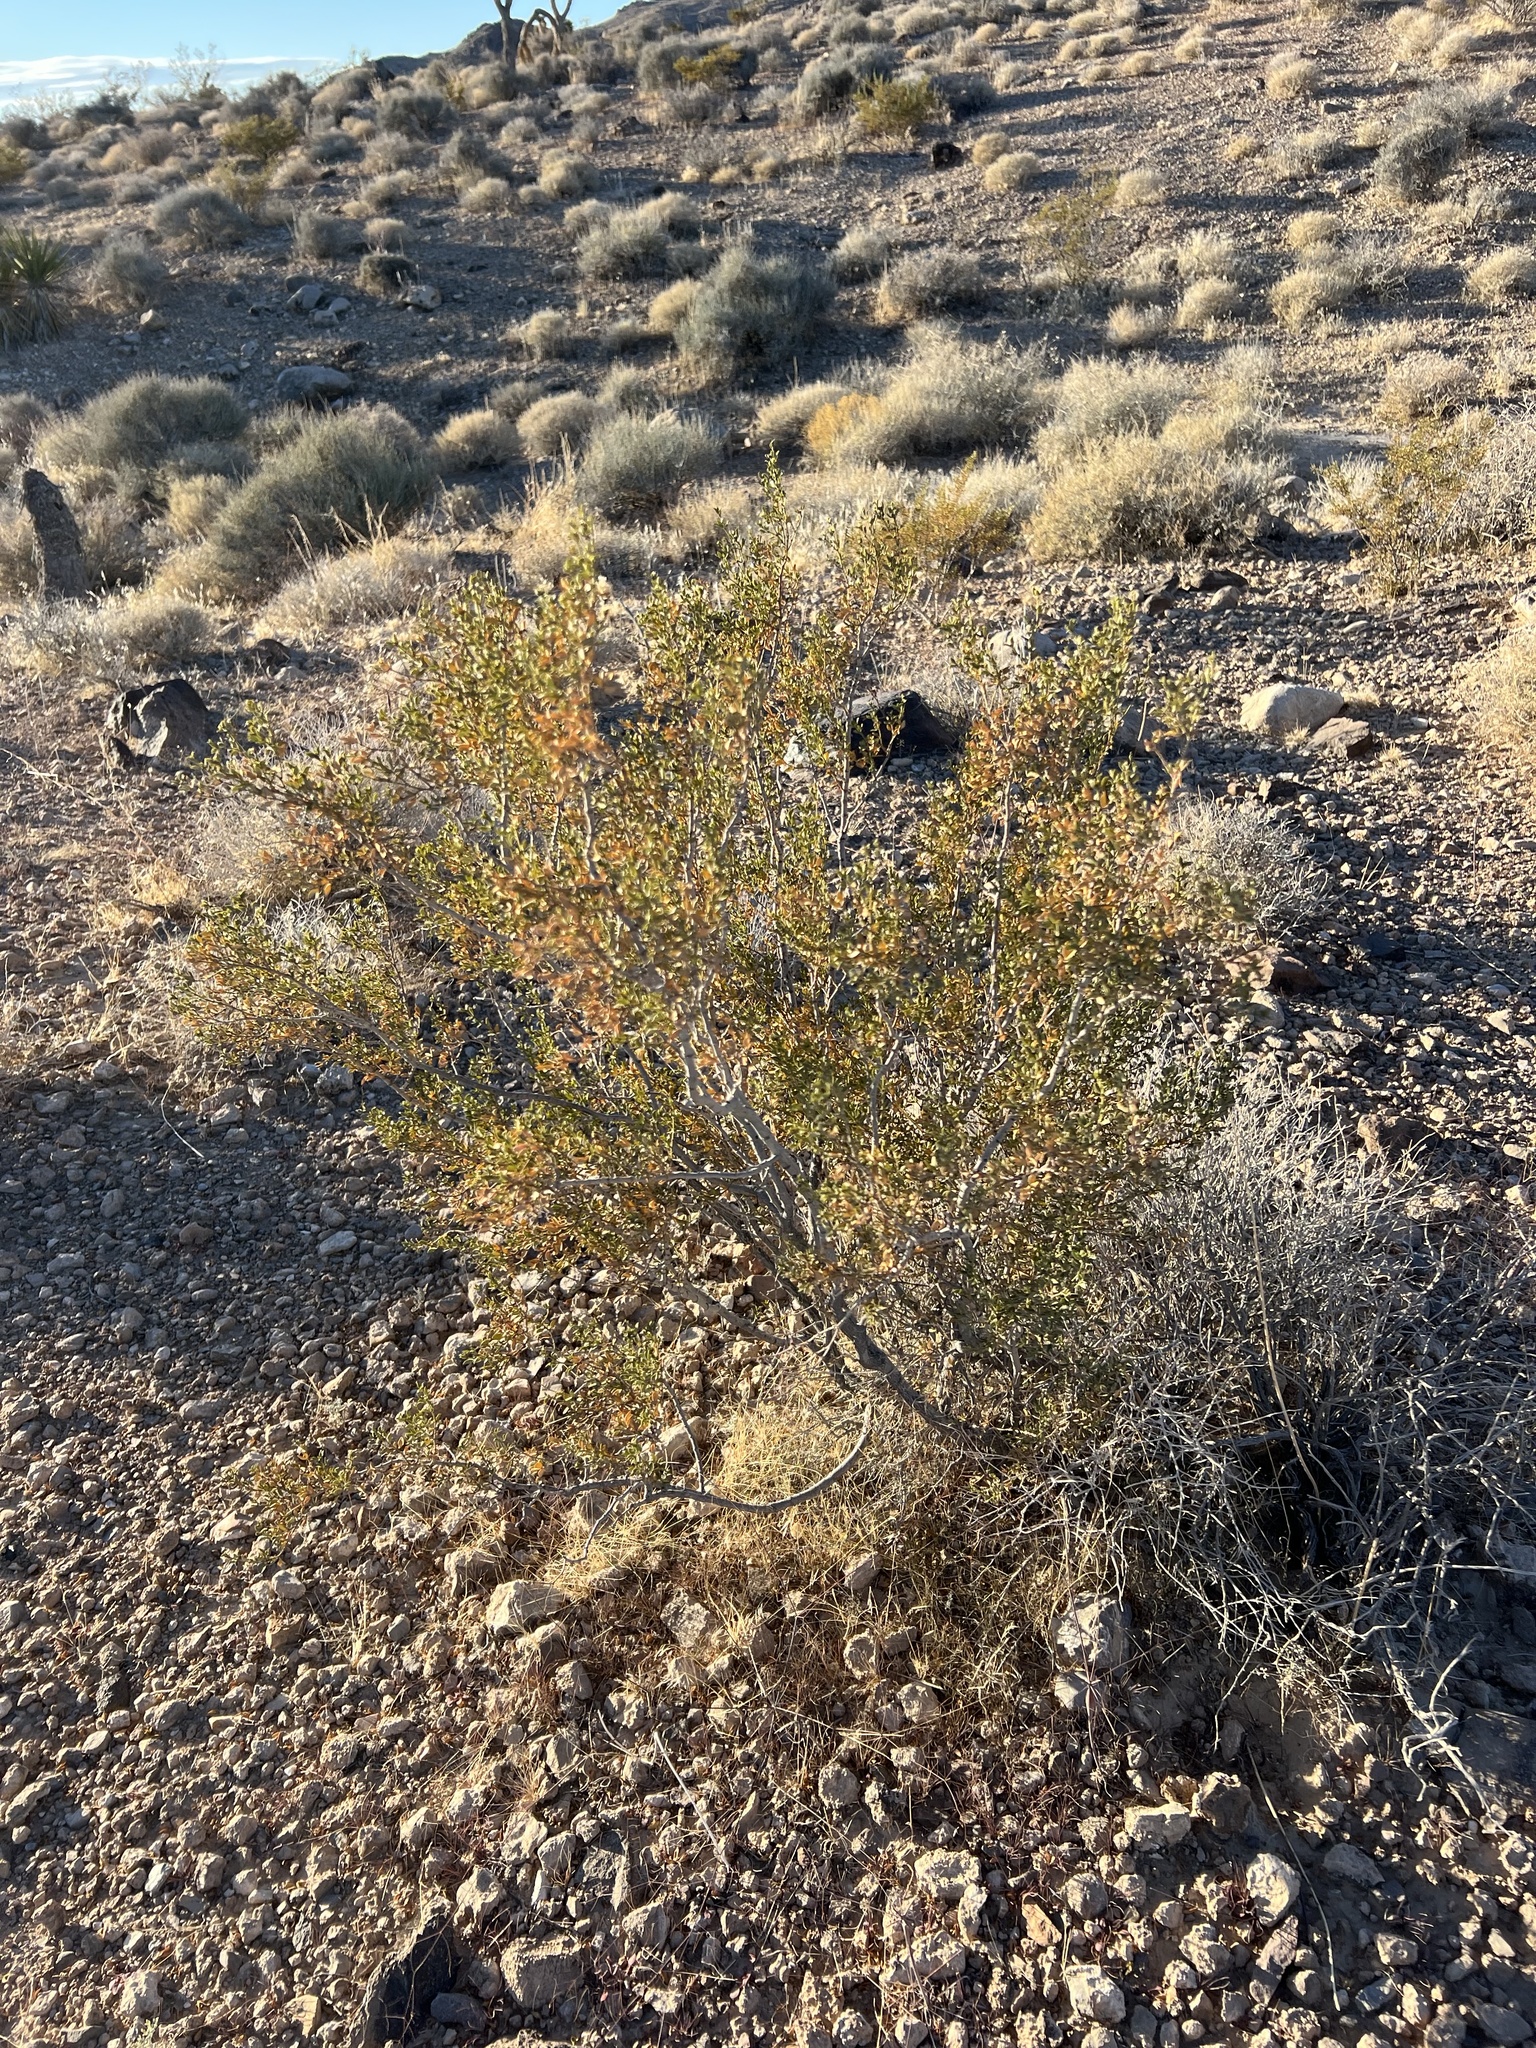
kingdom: Plantae
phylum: Tracheophyta
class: Magnoliopsida
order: Zygophyllales
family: Zygophyllaceae
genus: Larrea
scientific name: Larrea tridentata
